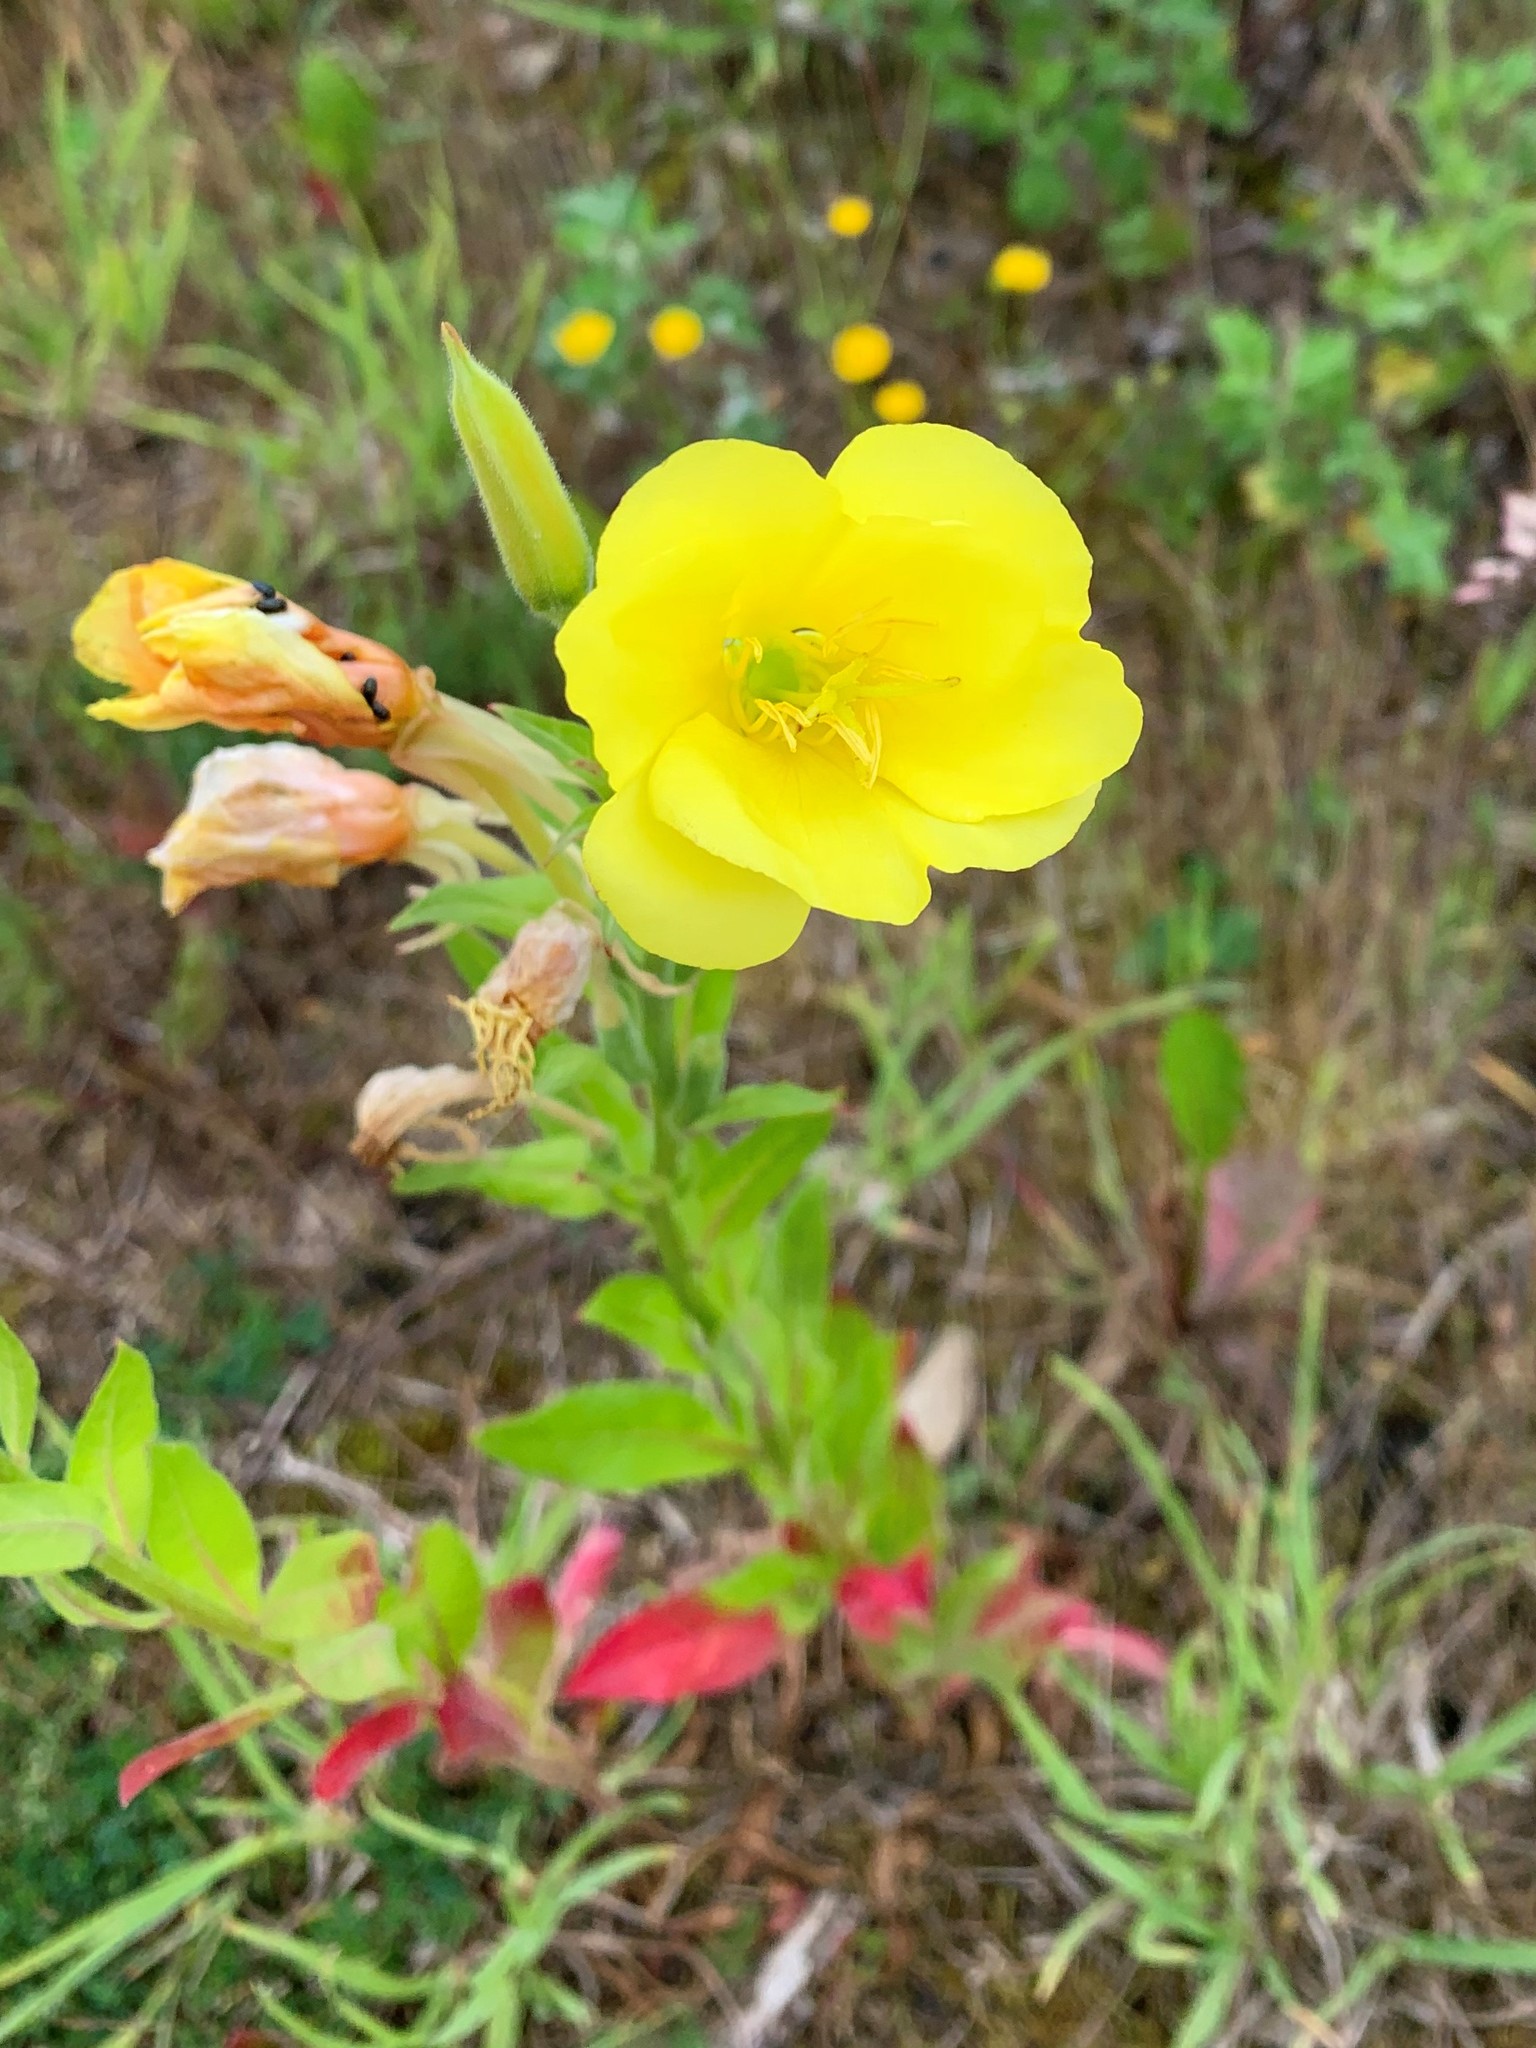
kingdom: Plantae
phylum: Tracheophyta
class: Magnoliopsida
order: Myrtales
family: Onagraceae
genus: Oenothera
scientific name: Oenothera biennis
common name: Common evening-primrose
